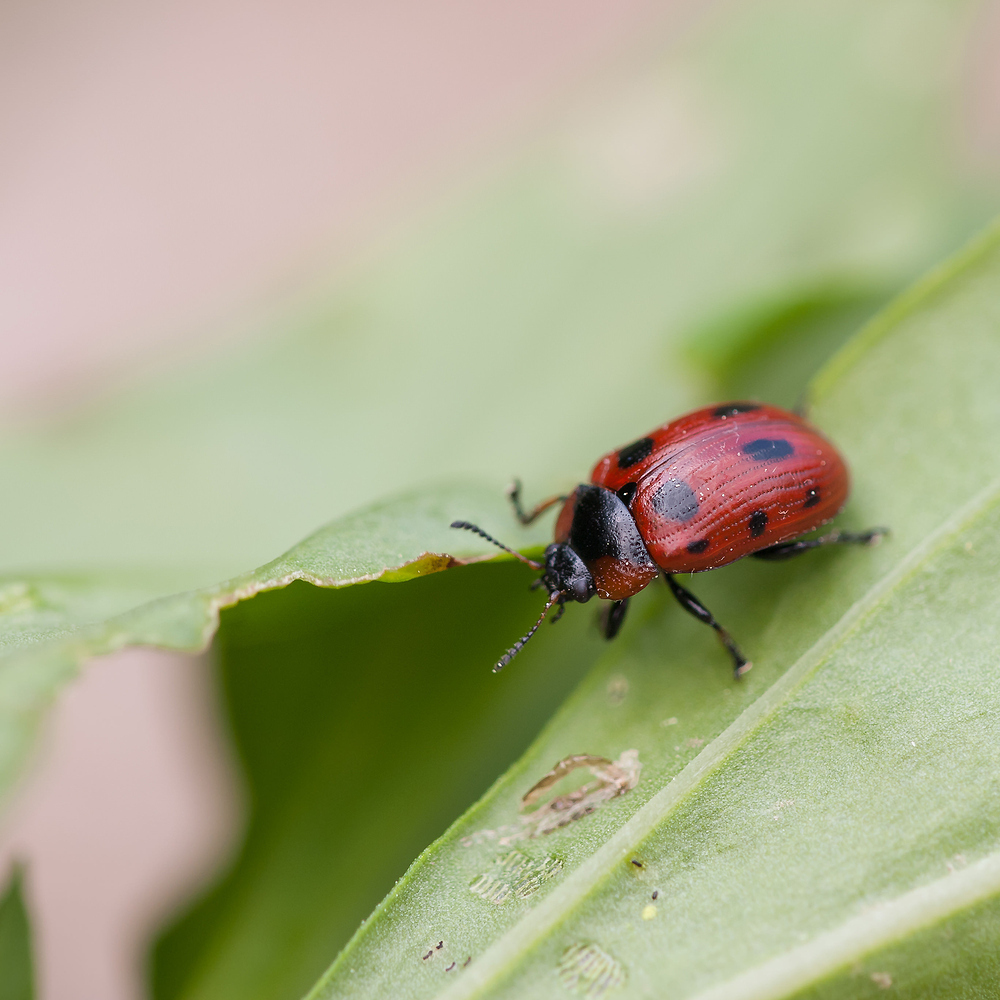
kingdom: Animalia
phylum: Arthropoda
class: Insecta
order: Coleoptera
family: Chrysomelidae
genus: Gonioctena
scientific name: Gonioctena viminalis
